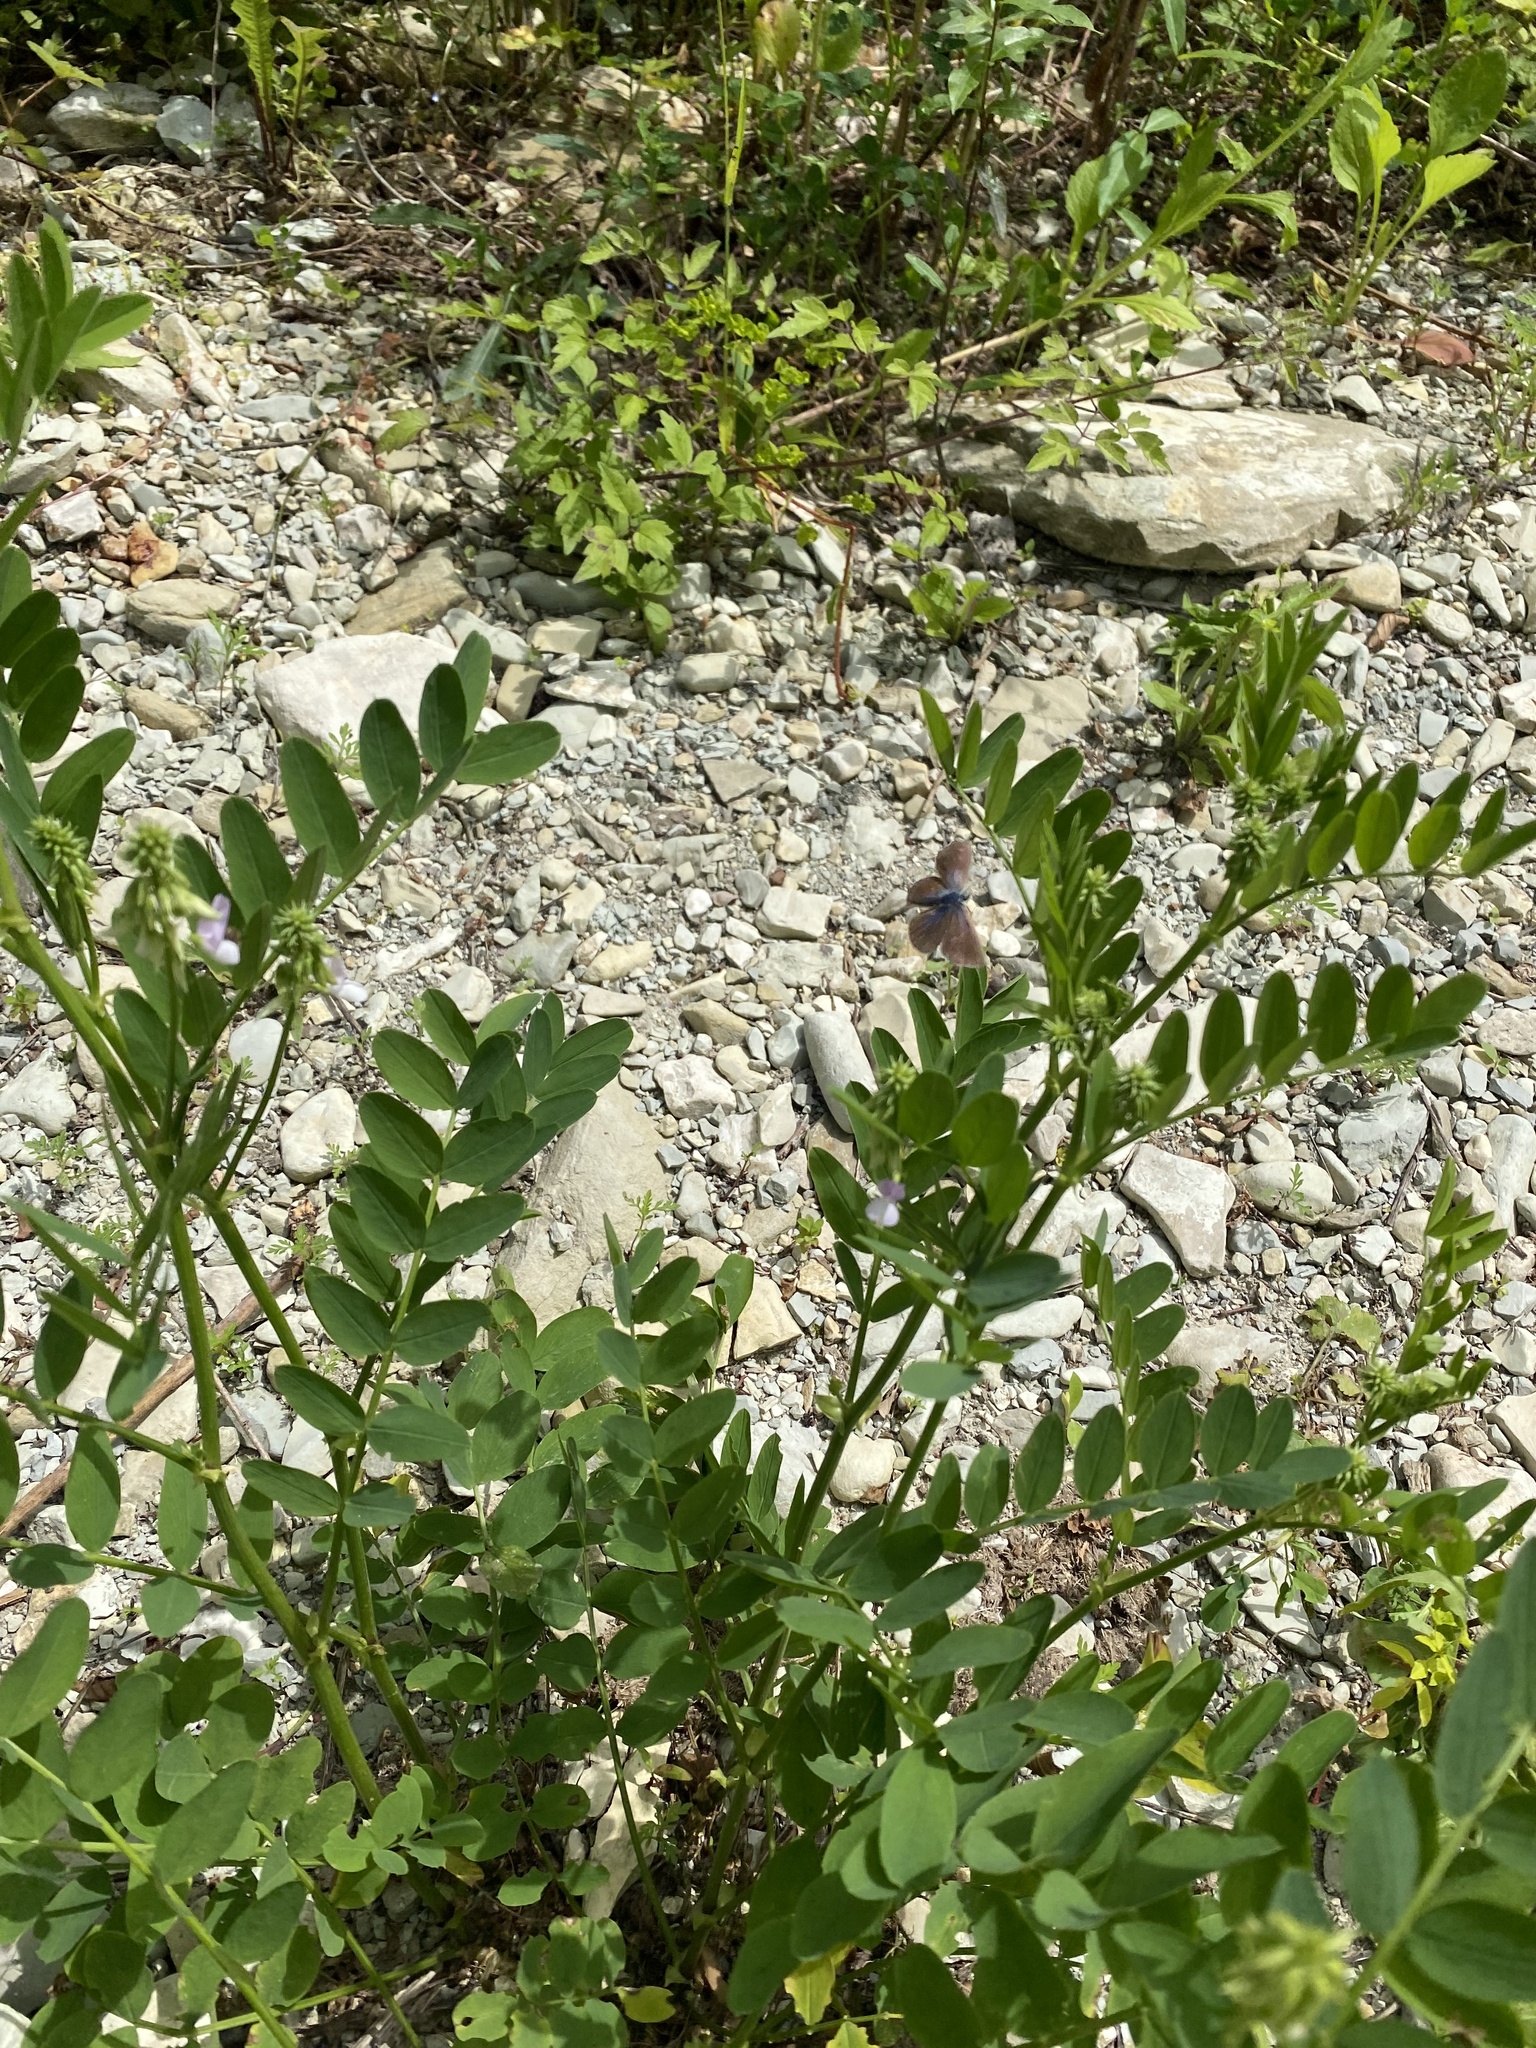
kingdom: Plantae
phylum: Tracheophyta
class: Magnoliopsida
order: Fabales
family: Fabaceae
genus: Galega
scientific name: Galega officinalis
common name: Goat's-rue
